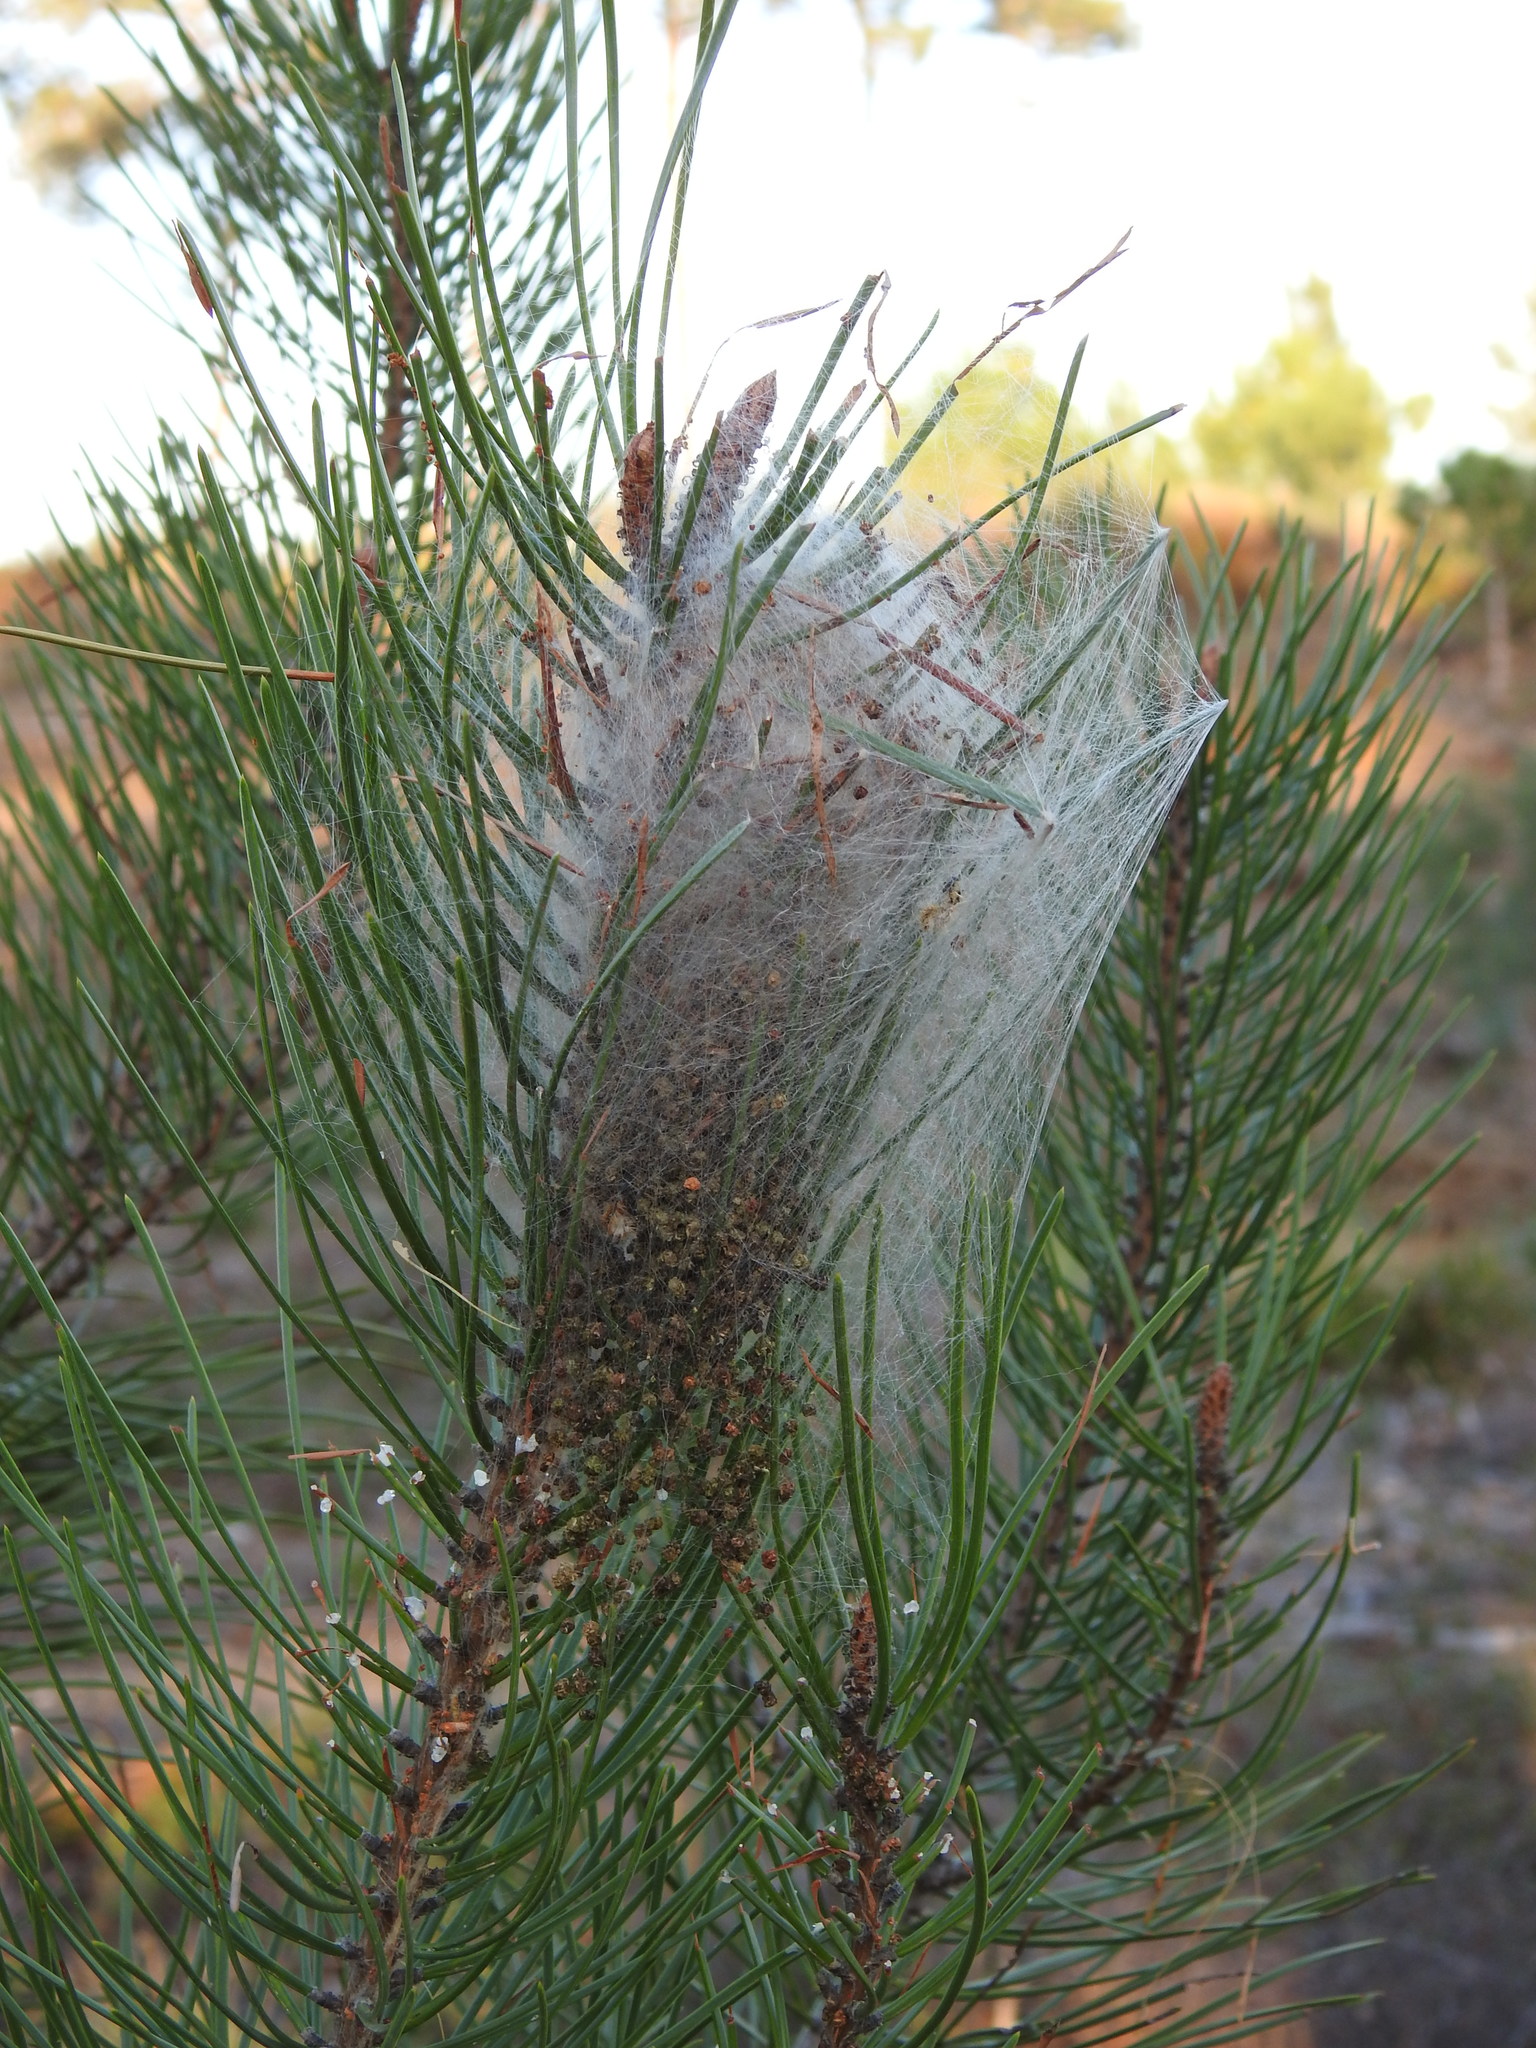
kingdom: Animalia
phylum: Arthropoda
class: Insecta
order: Lepidoptera
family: Notodontidae
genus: Thaumetopoea
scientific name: Thaumetopoea pityocampa
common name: Pine processionary
